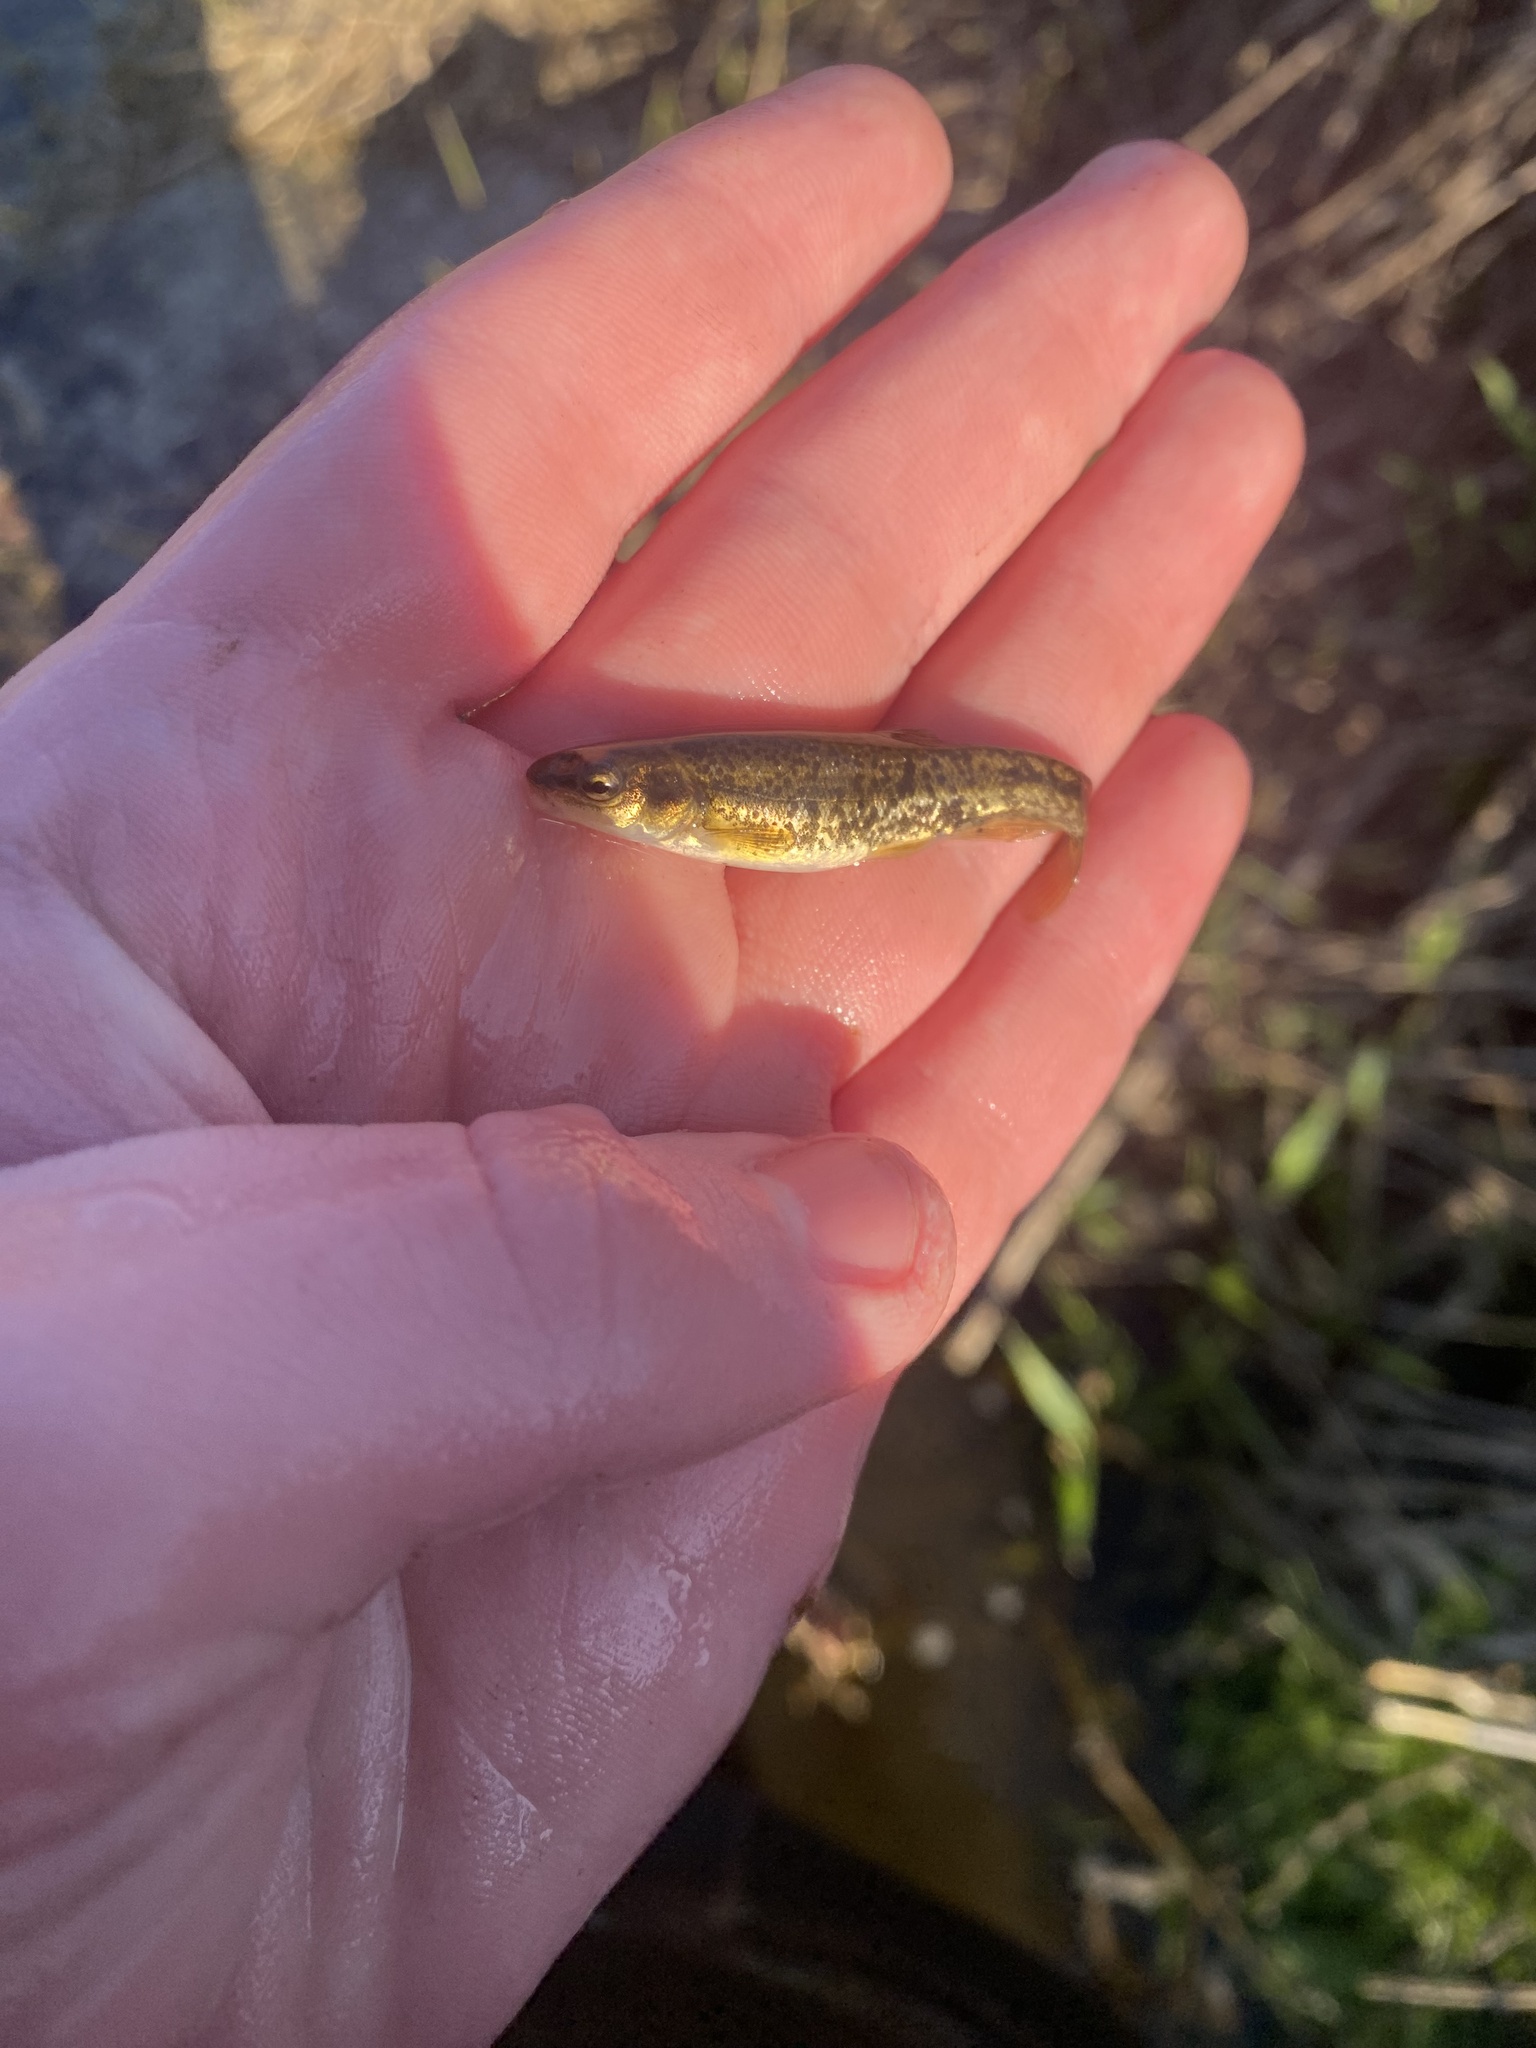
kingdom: Animalia
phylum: Chordata
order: Cypriniformes
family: Cyprinidae
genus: Rhinichthys
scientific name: Rhinichthys obtusus
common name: Western blacknose dace
